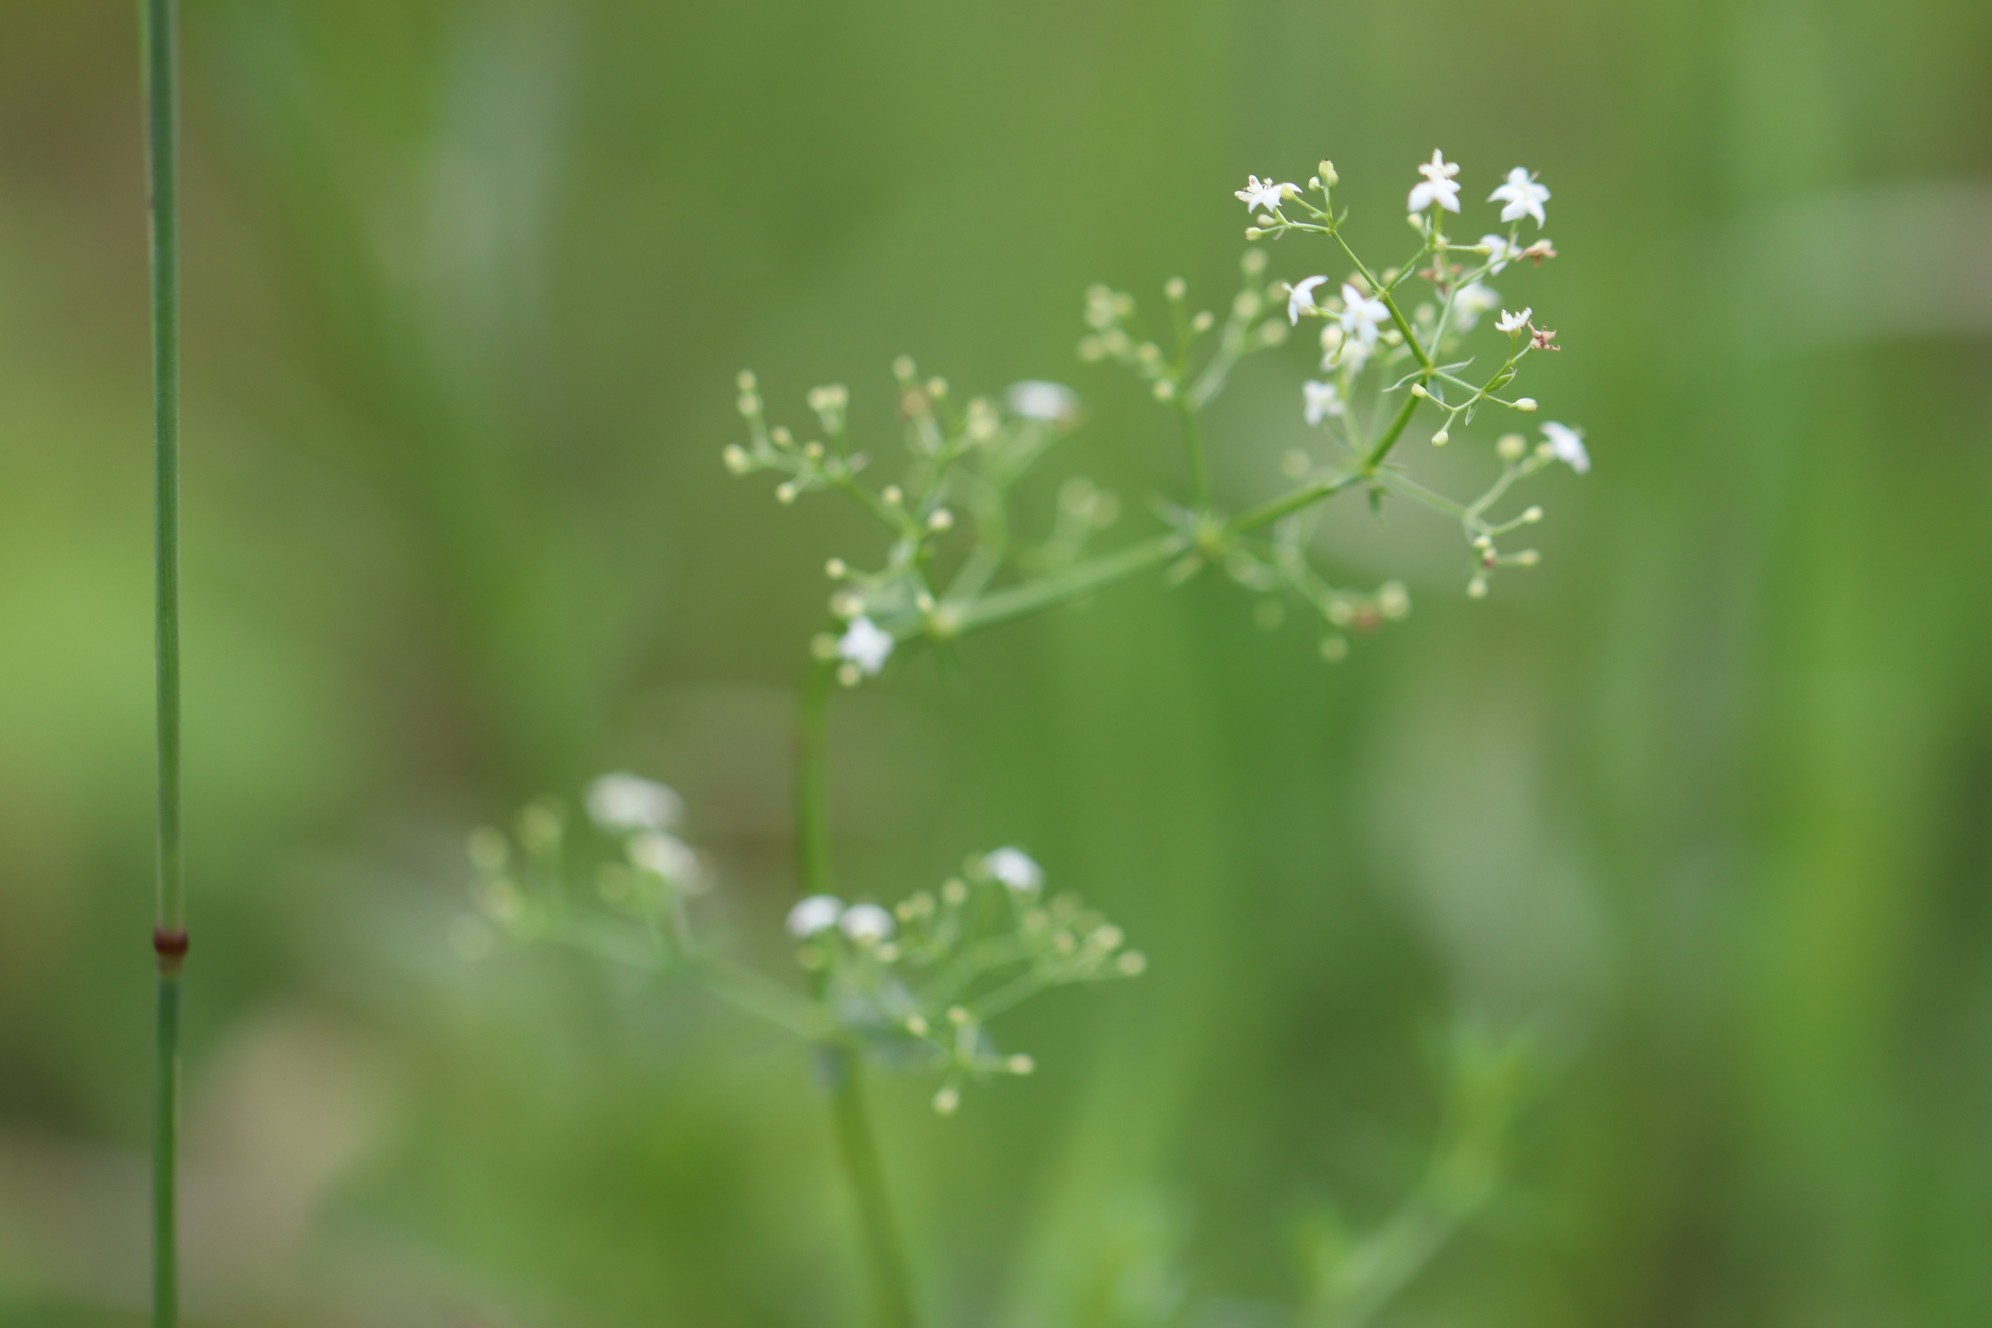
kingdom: Plantae
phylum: Tracheophyta
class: Magnoliopsida
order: Gentianales
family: Rubiaceae
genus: Galium
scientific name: Galium mollugo
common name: Hedge bedstraw
